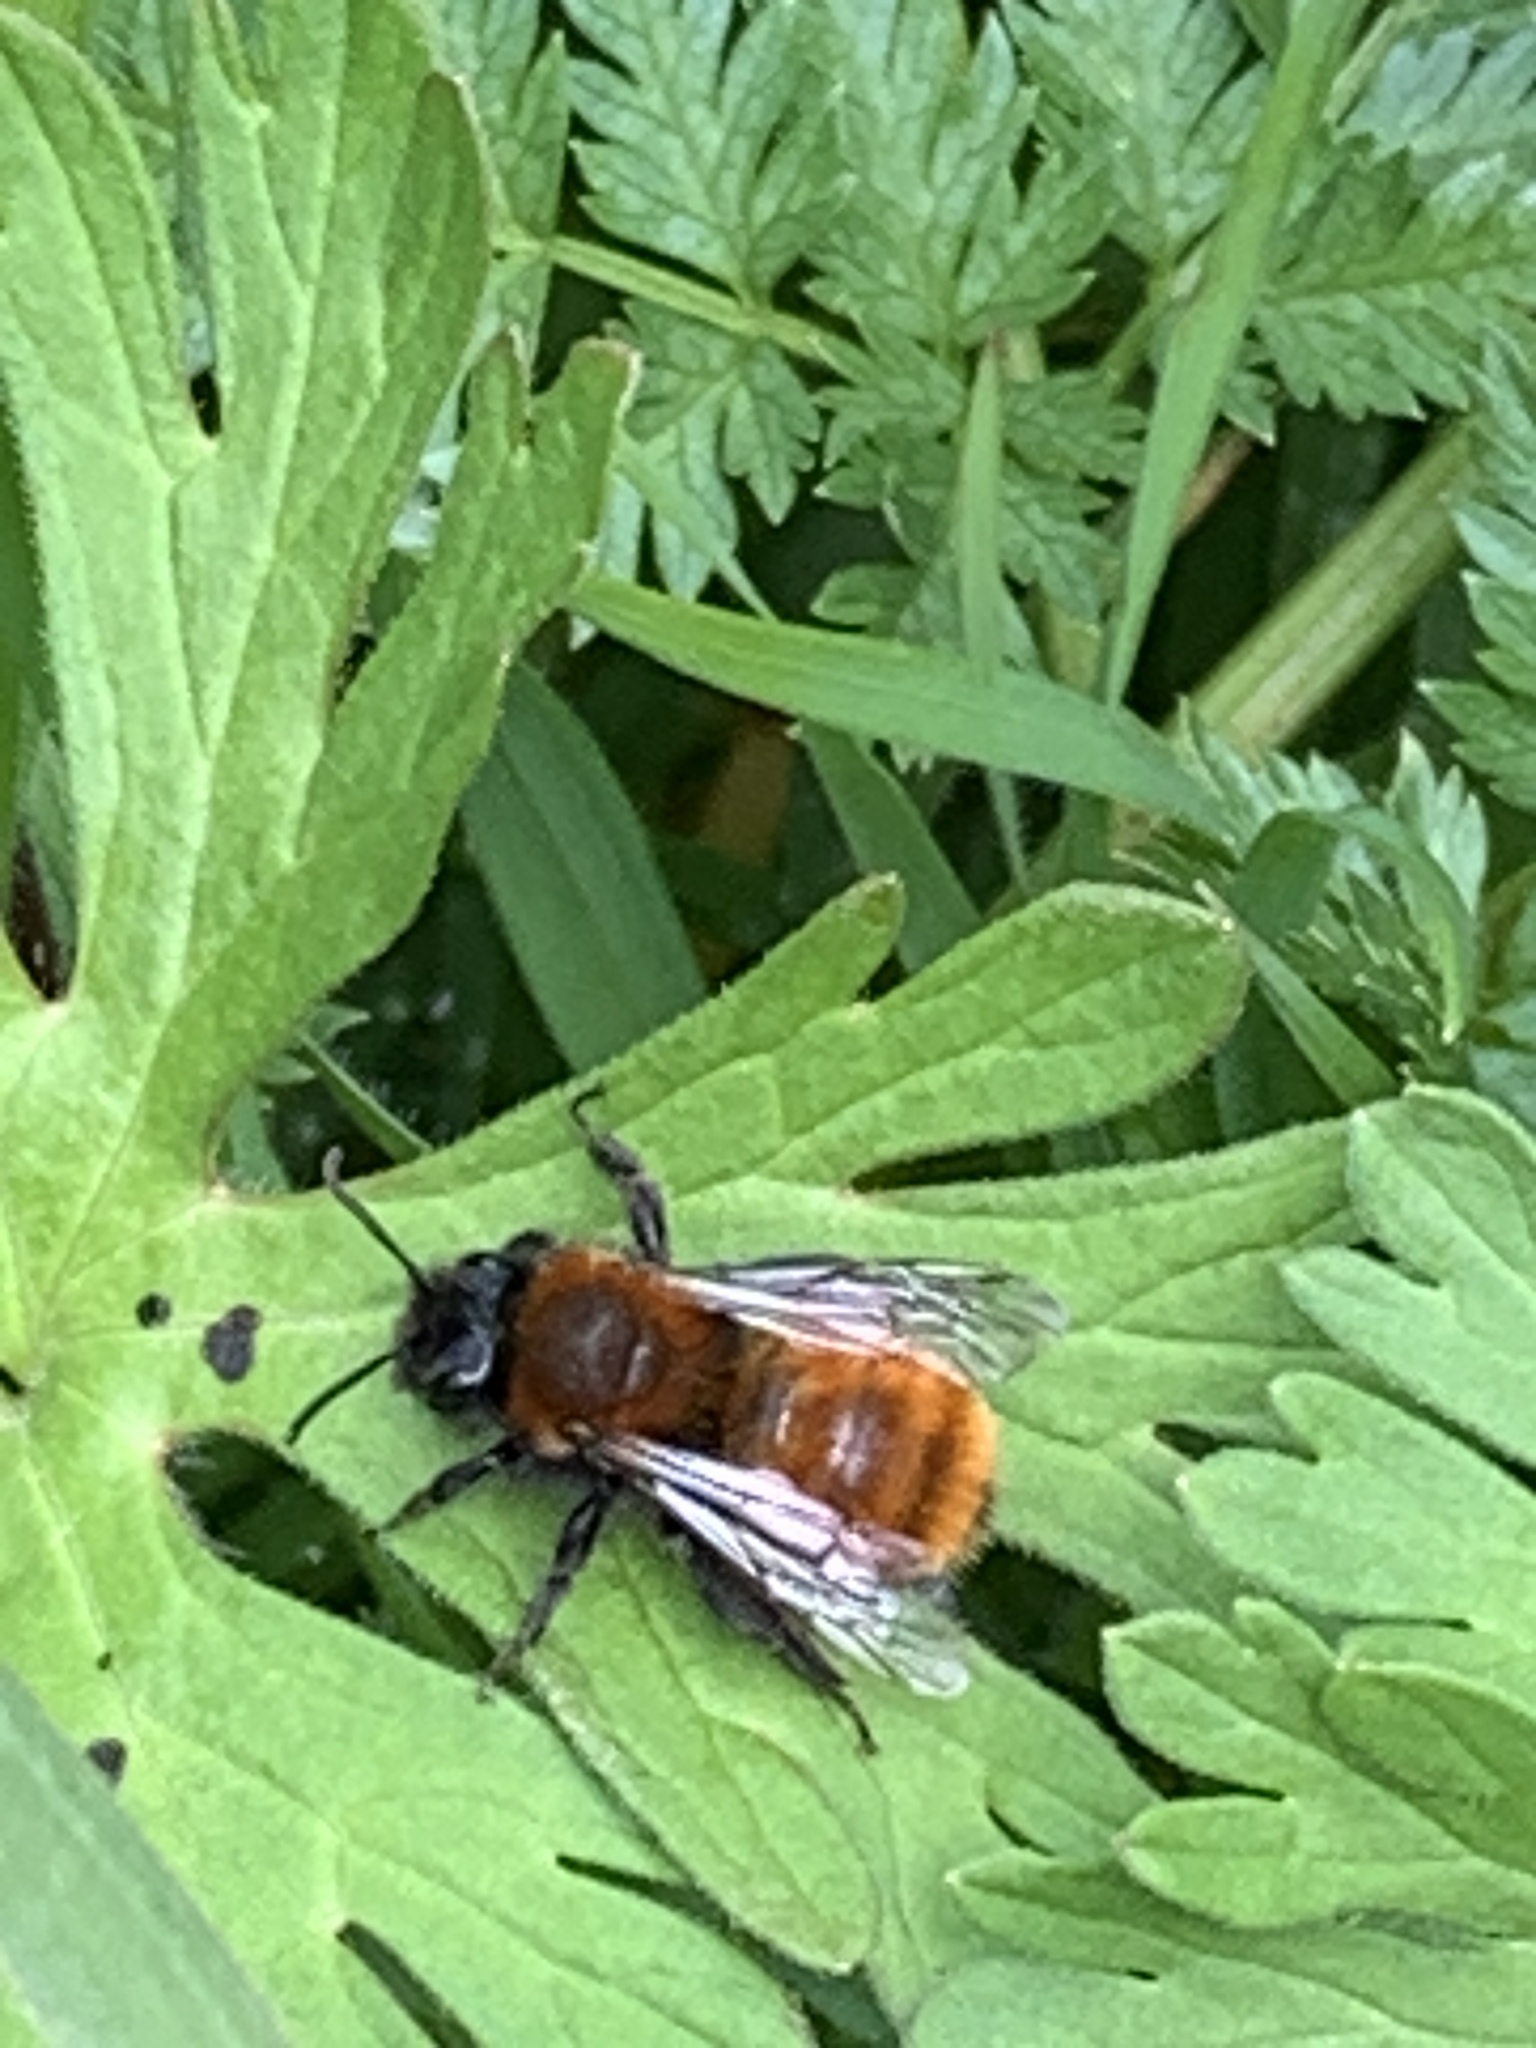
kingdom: Animalia
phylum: Arthropoda
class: Insecta
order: Hymenoptera
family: Andrenidae
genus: Andrena
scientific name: Andrena fulva
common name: Tawny mining bee
